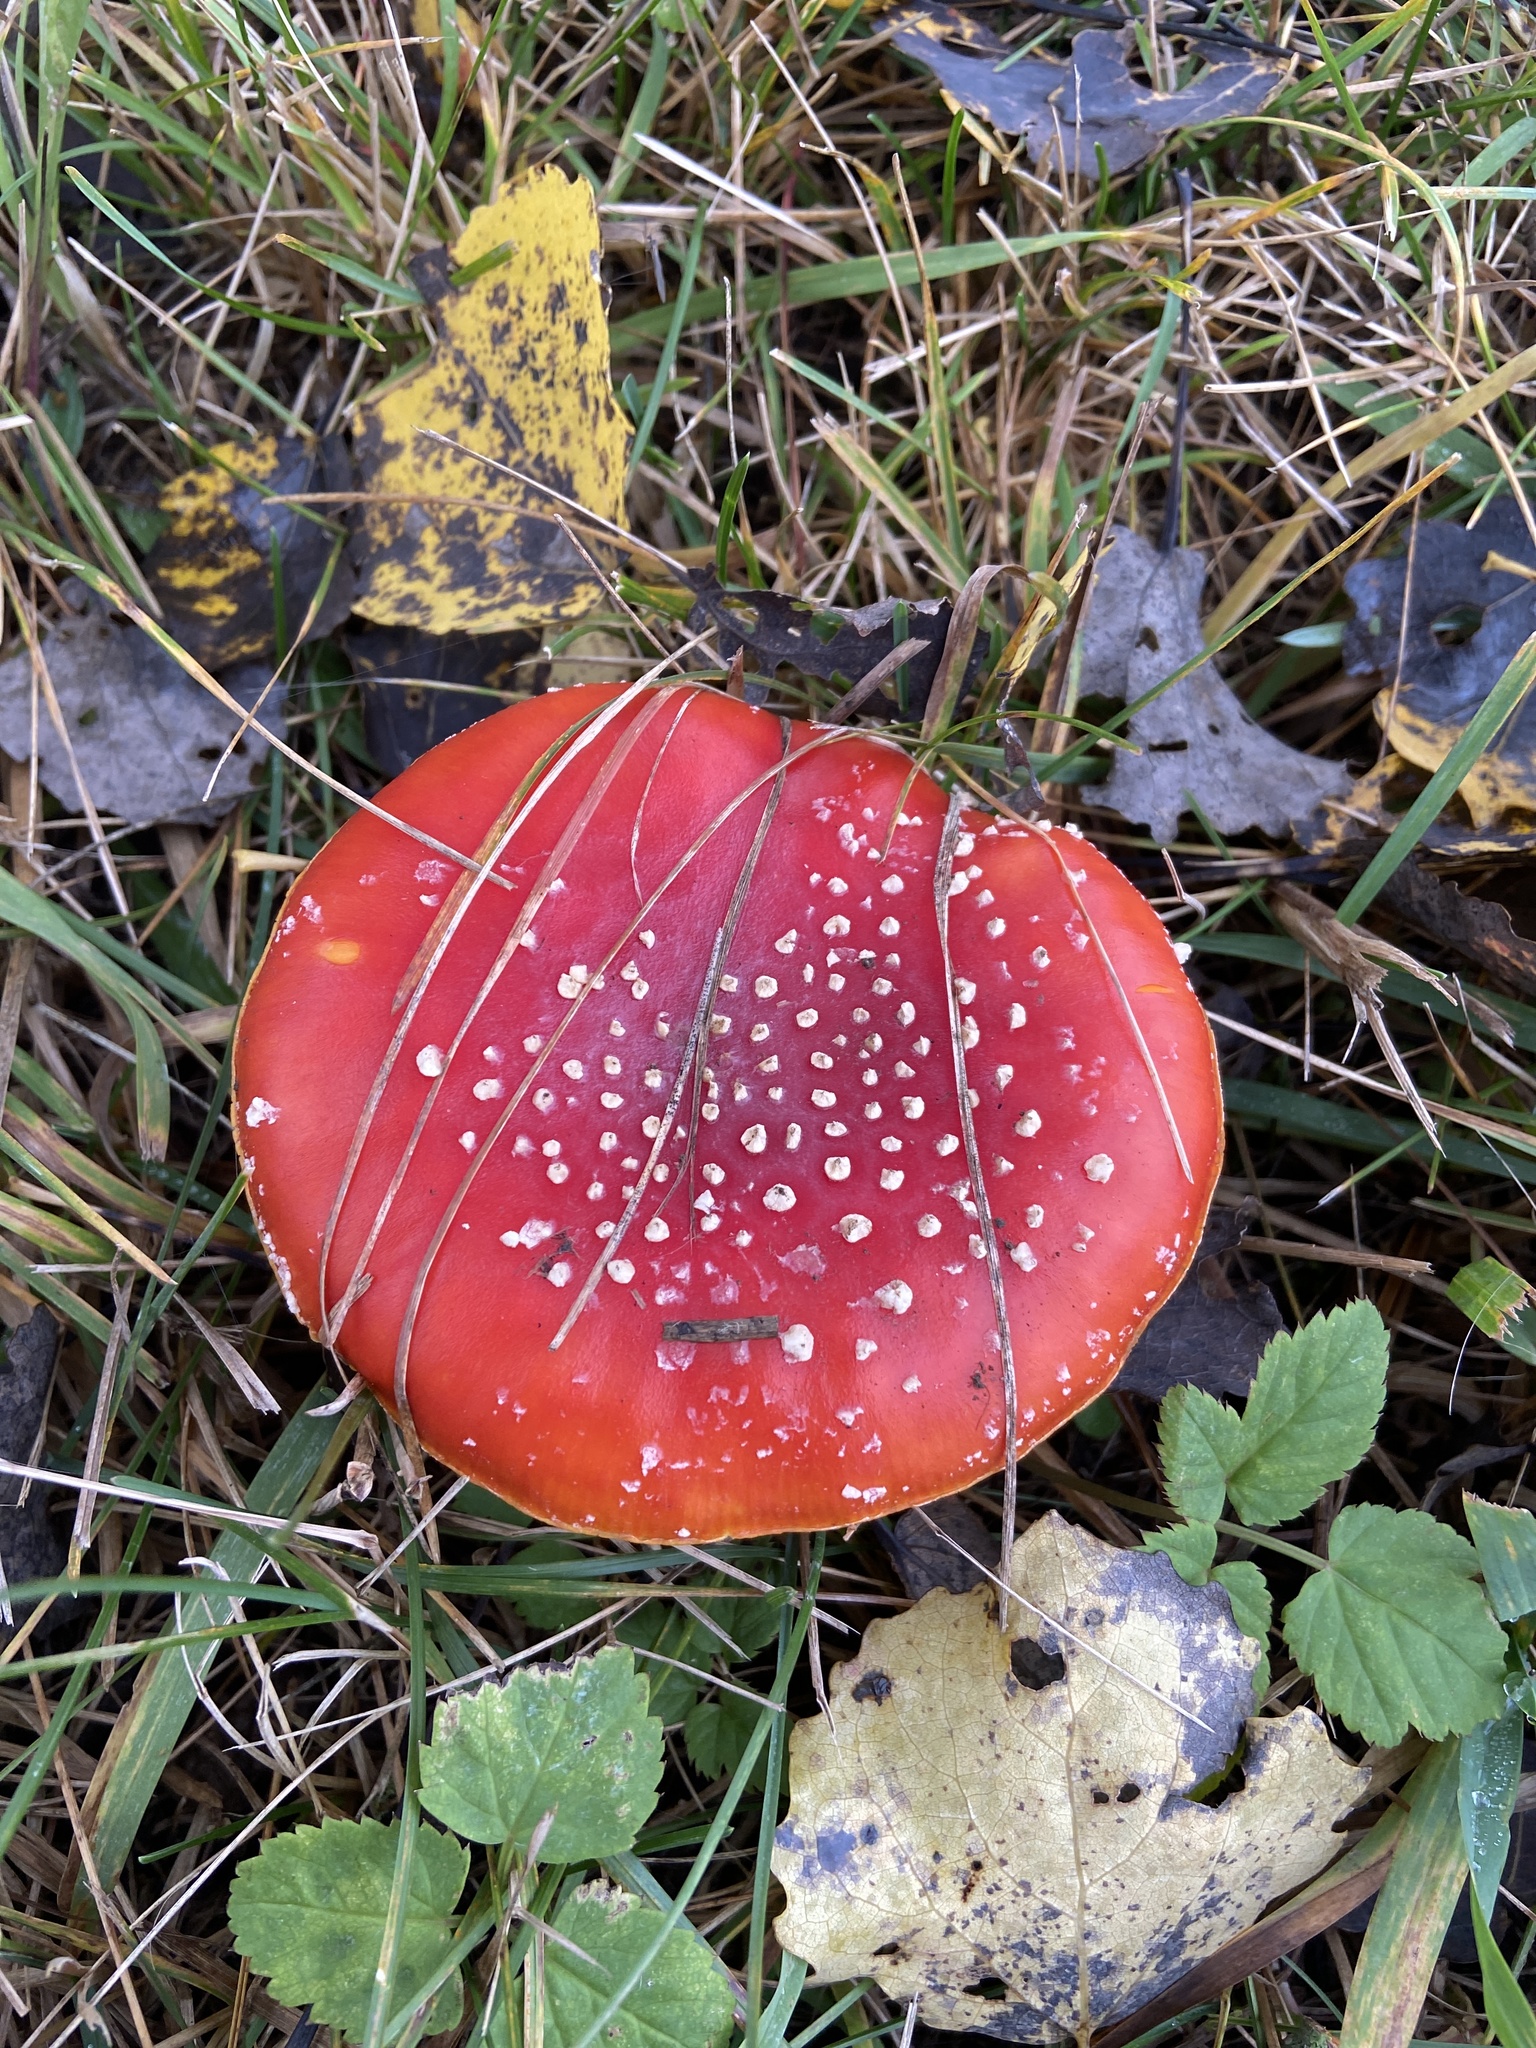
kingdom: Fungi
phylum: Basidiomycota
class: Agaricomycetes
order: Agaricales
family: Amanitaceae
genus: Amanita
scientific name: Amanita muscaria
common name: Fly agaric
